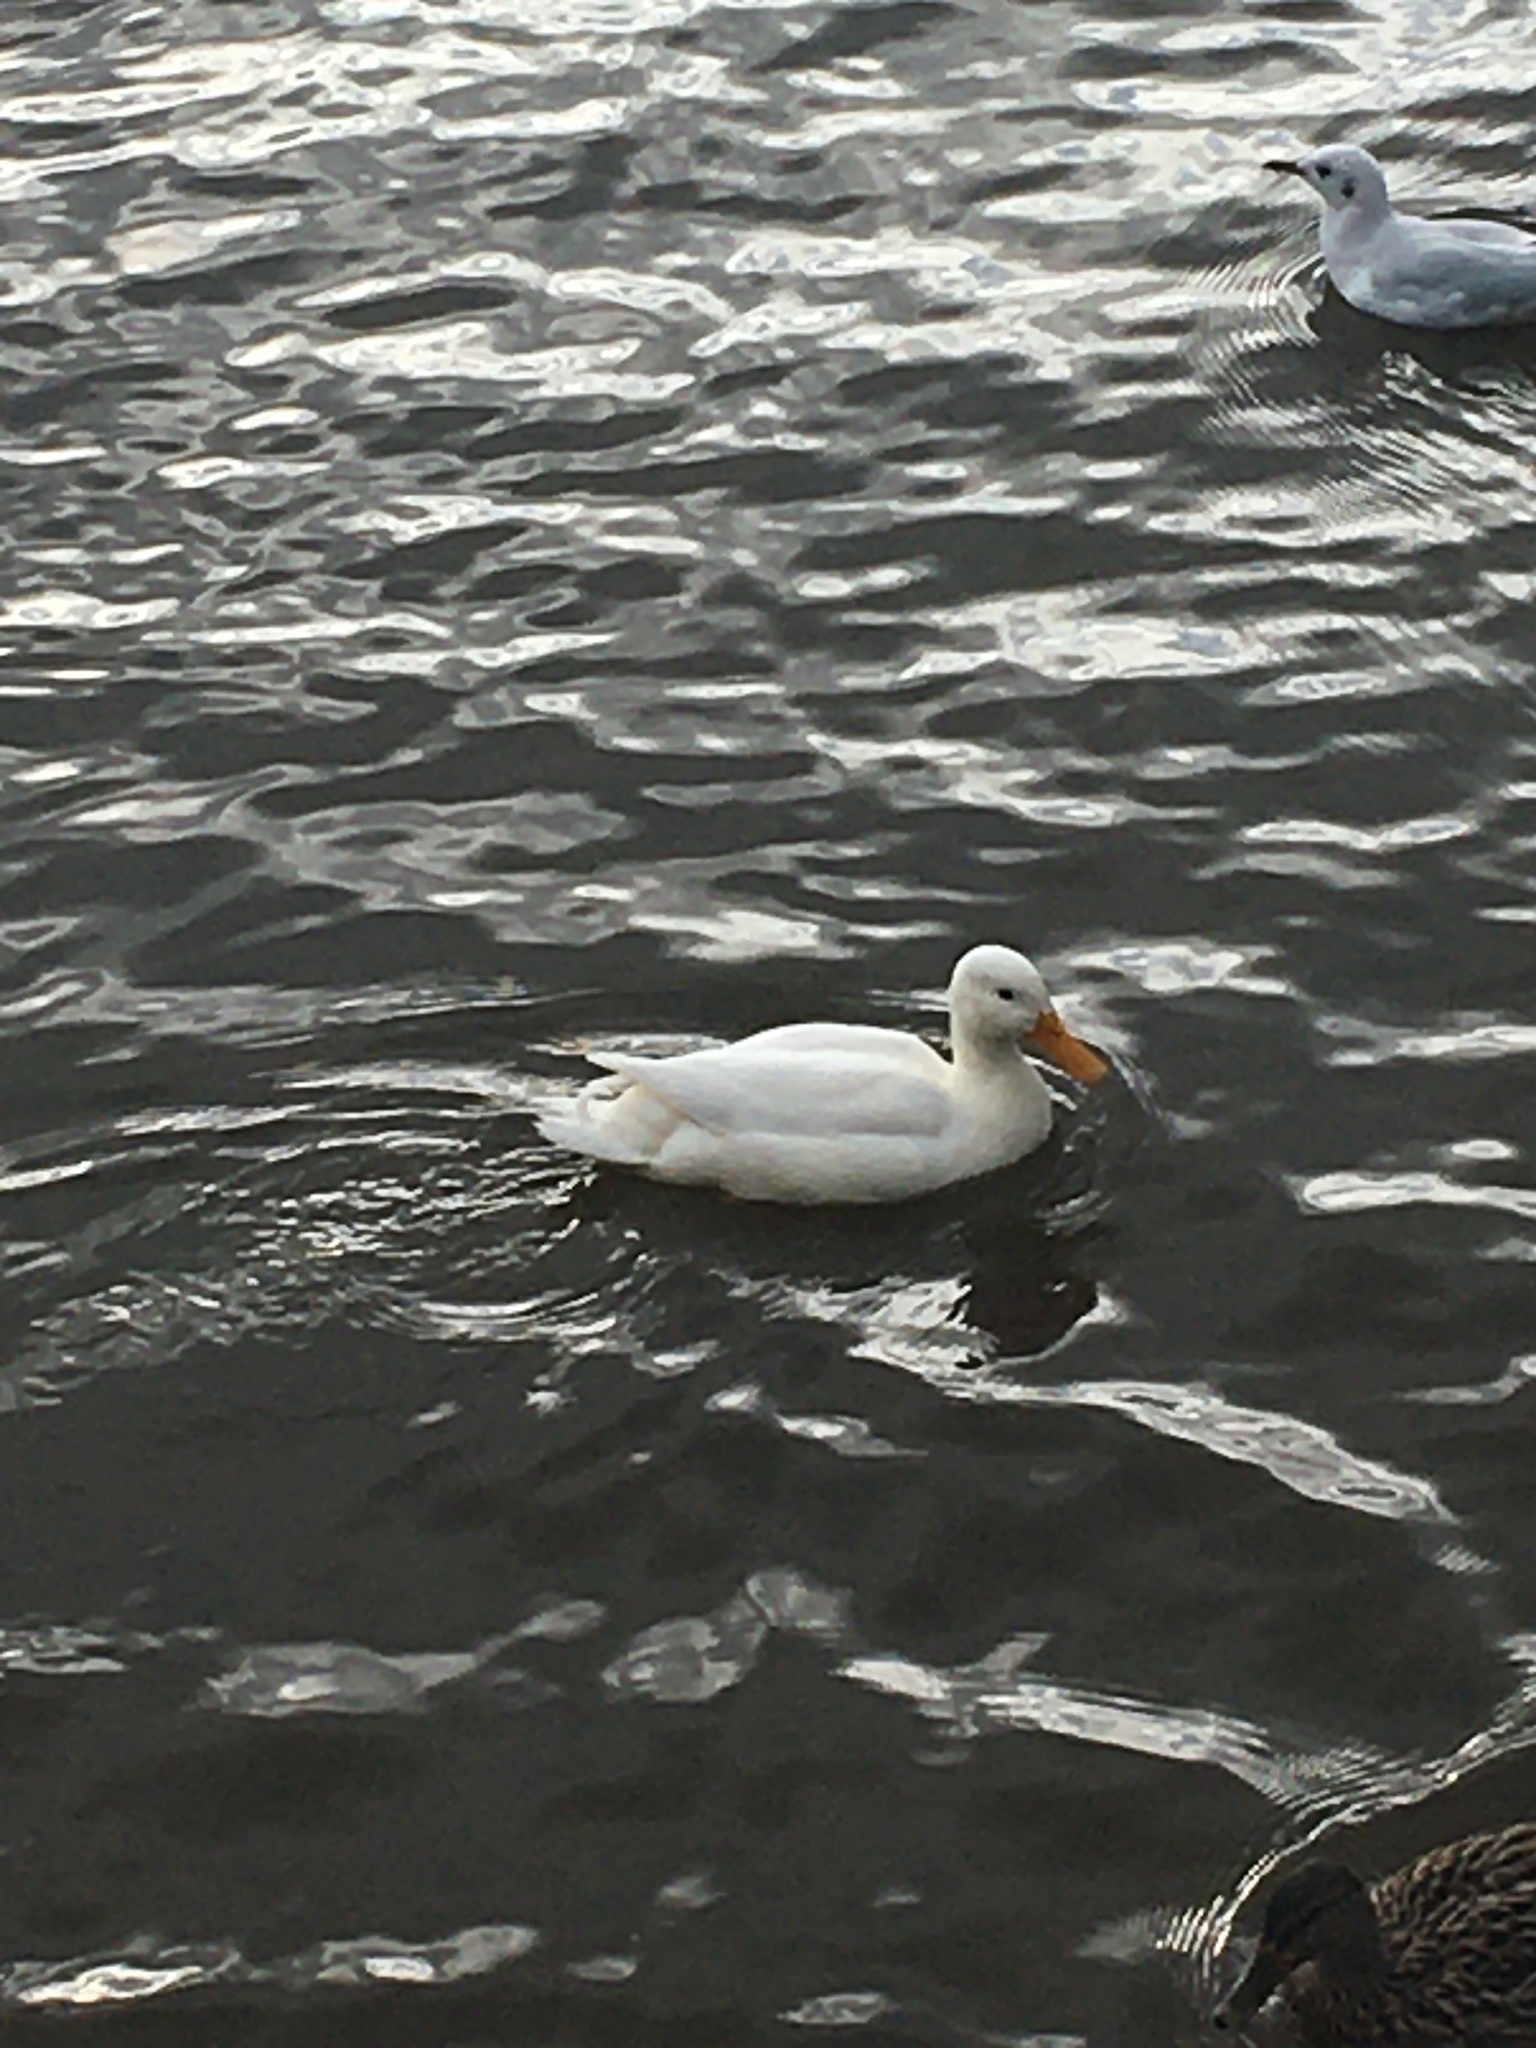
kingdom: Animalia
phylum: Chordata
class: Aves
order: Anseriformes
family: Anatidae
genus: Anas
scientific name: Anas platyrhynchos
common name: Mallard
